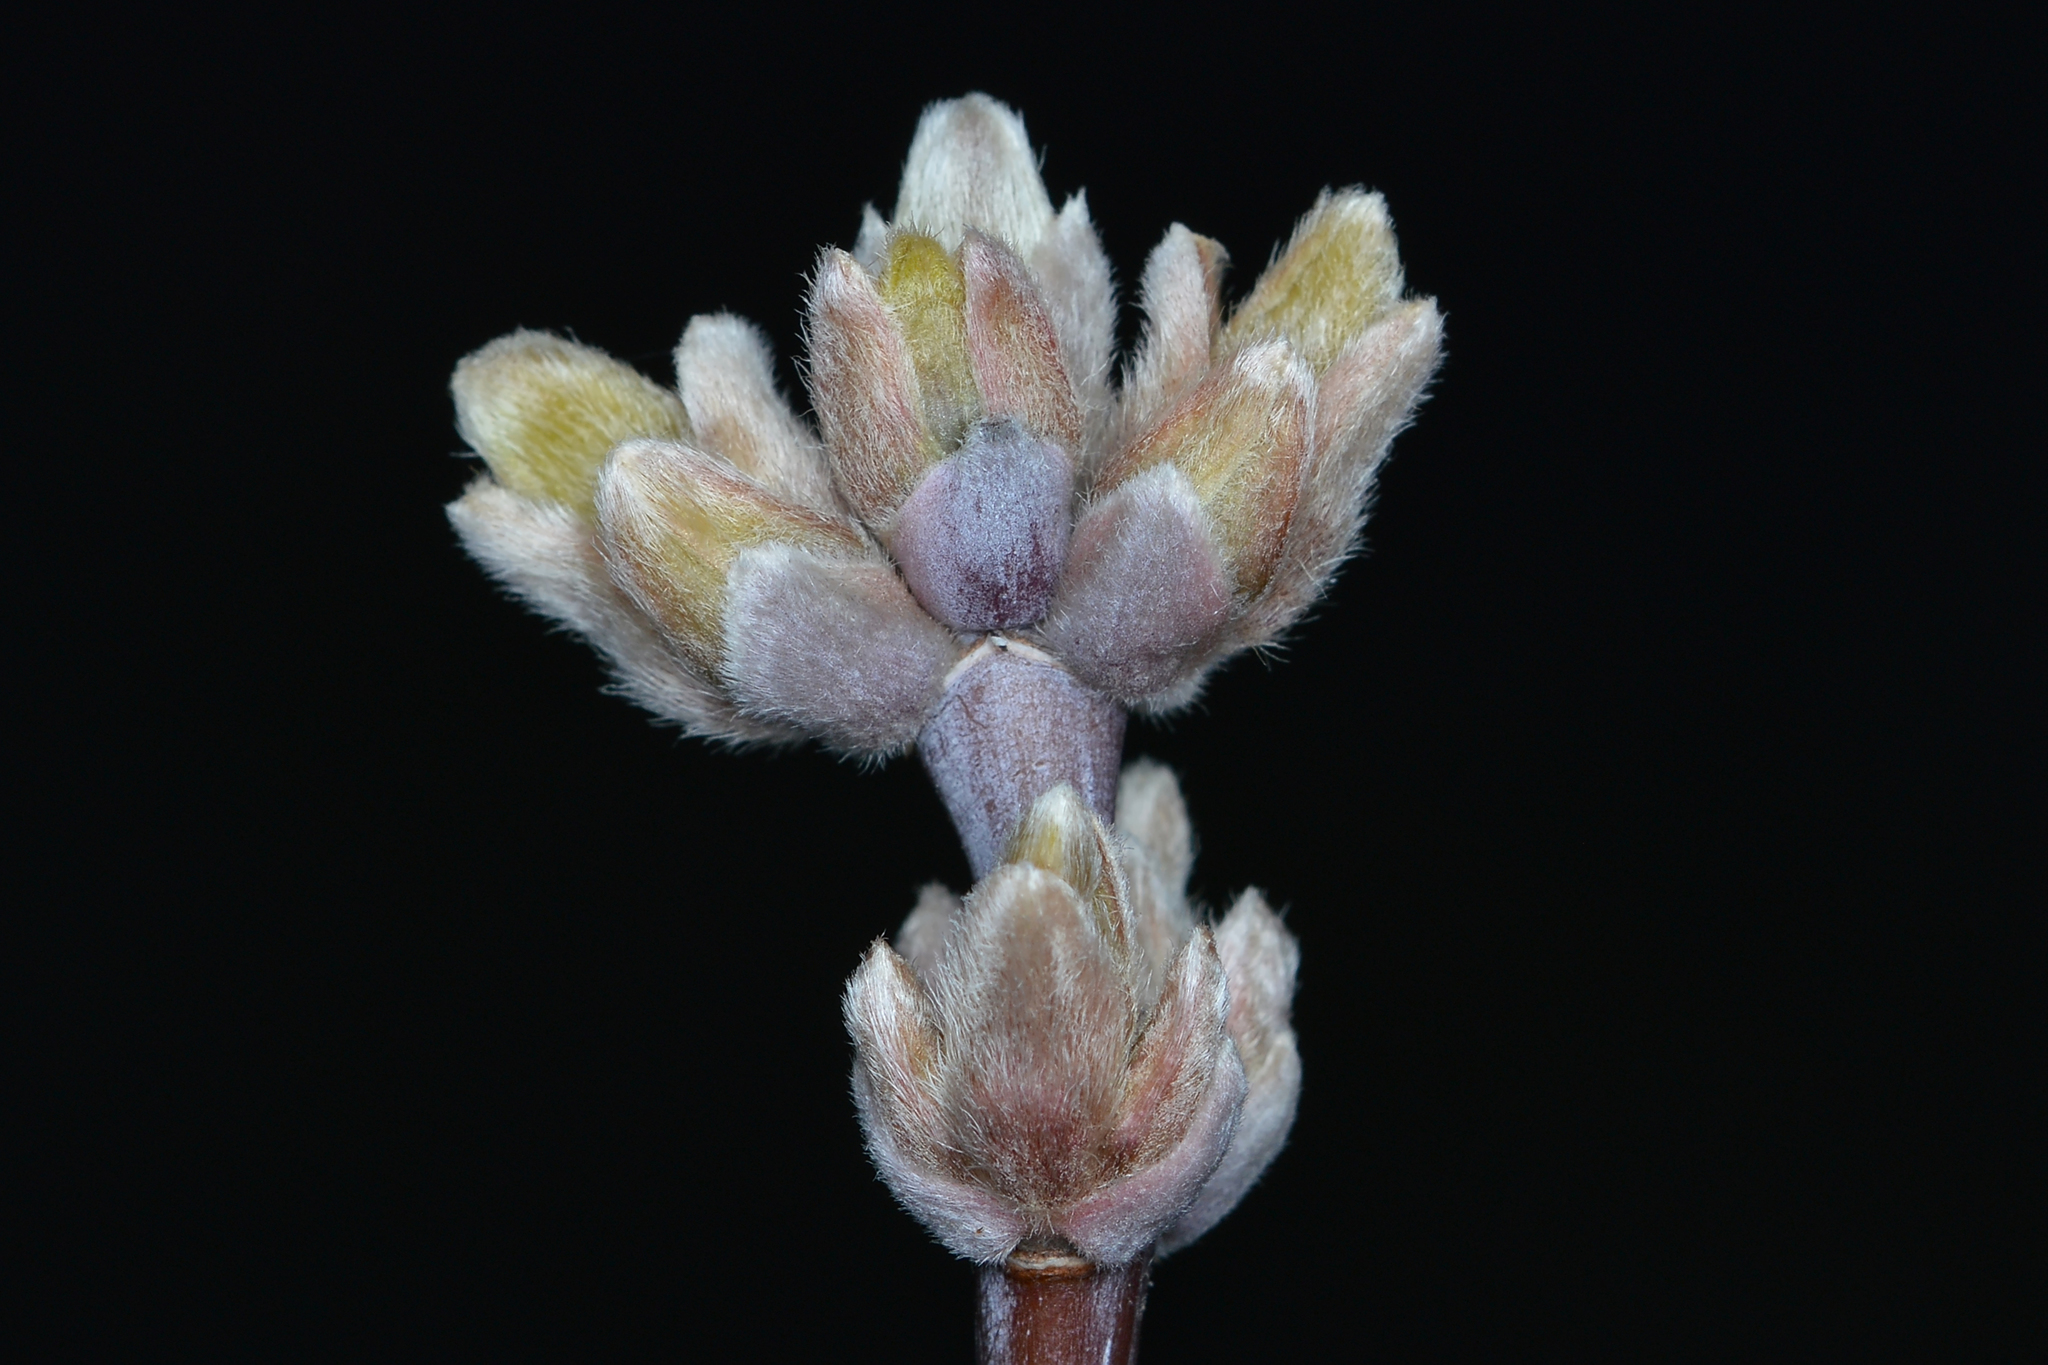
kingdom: Plantae
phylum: Tracheophyta
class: Magnoliopsida
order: Sapindales
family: Sapindaceae
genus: Acer
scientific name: Acer negundo
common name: Ashleaf maple
